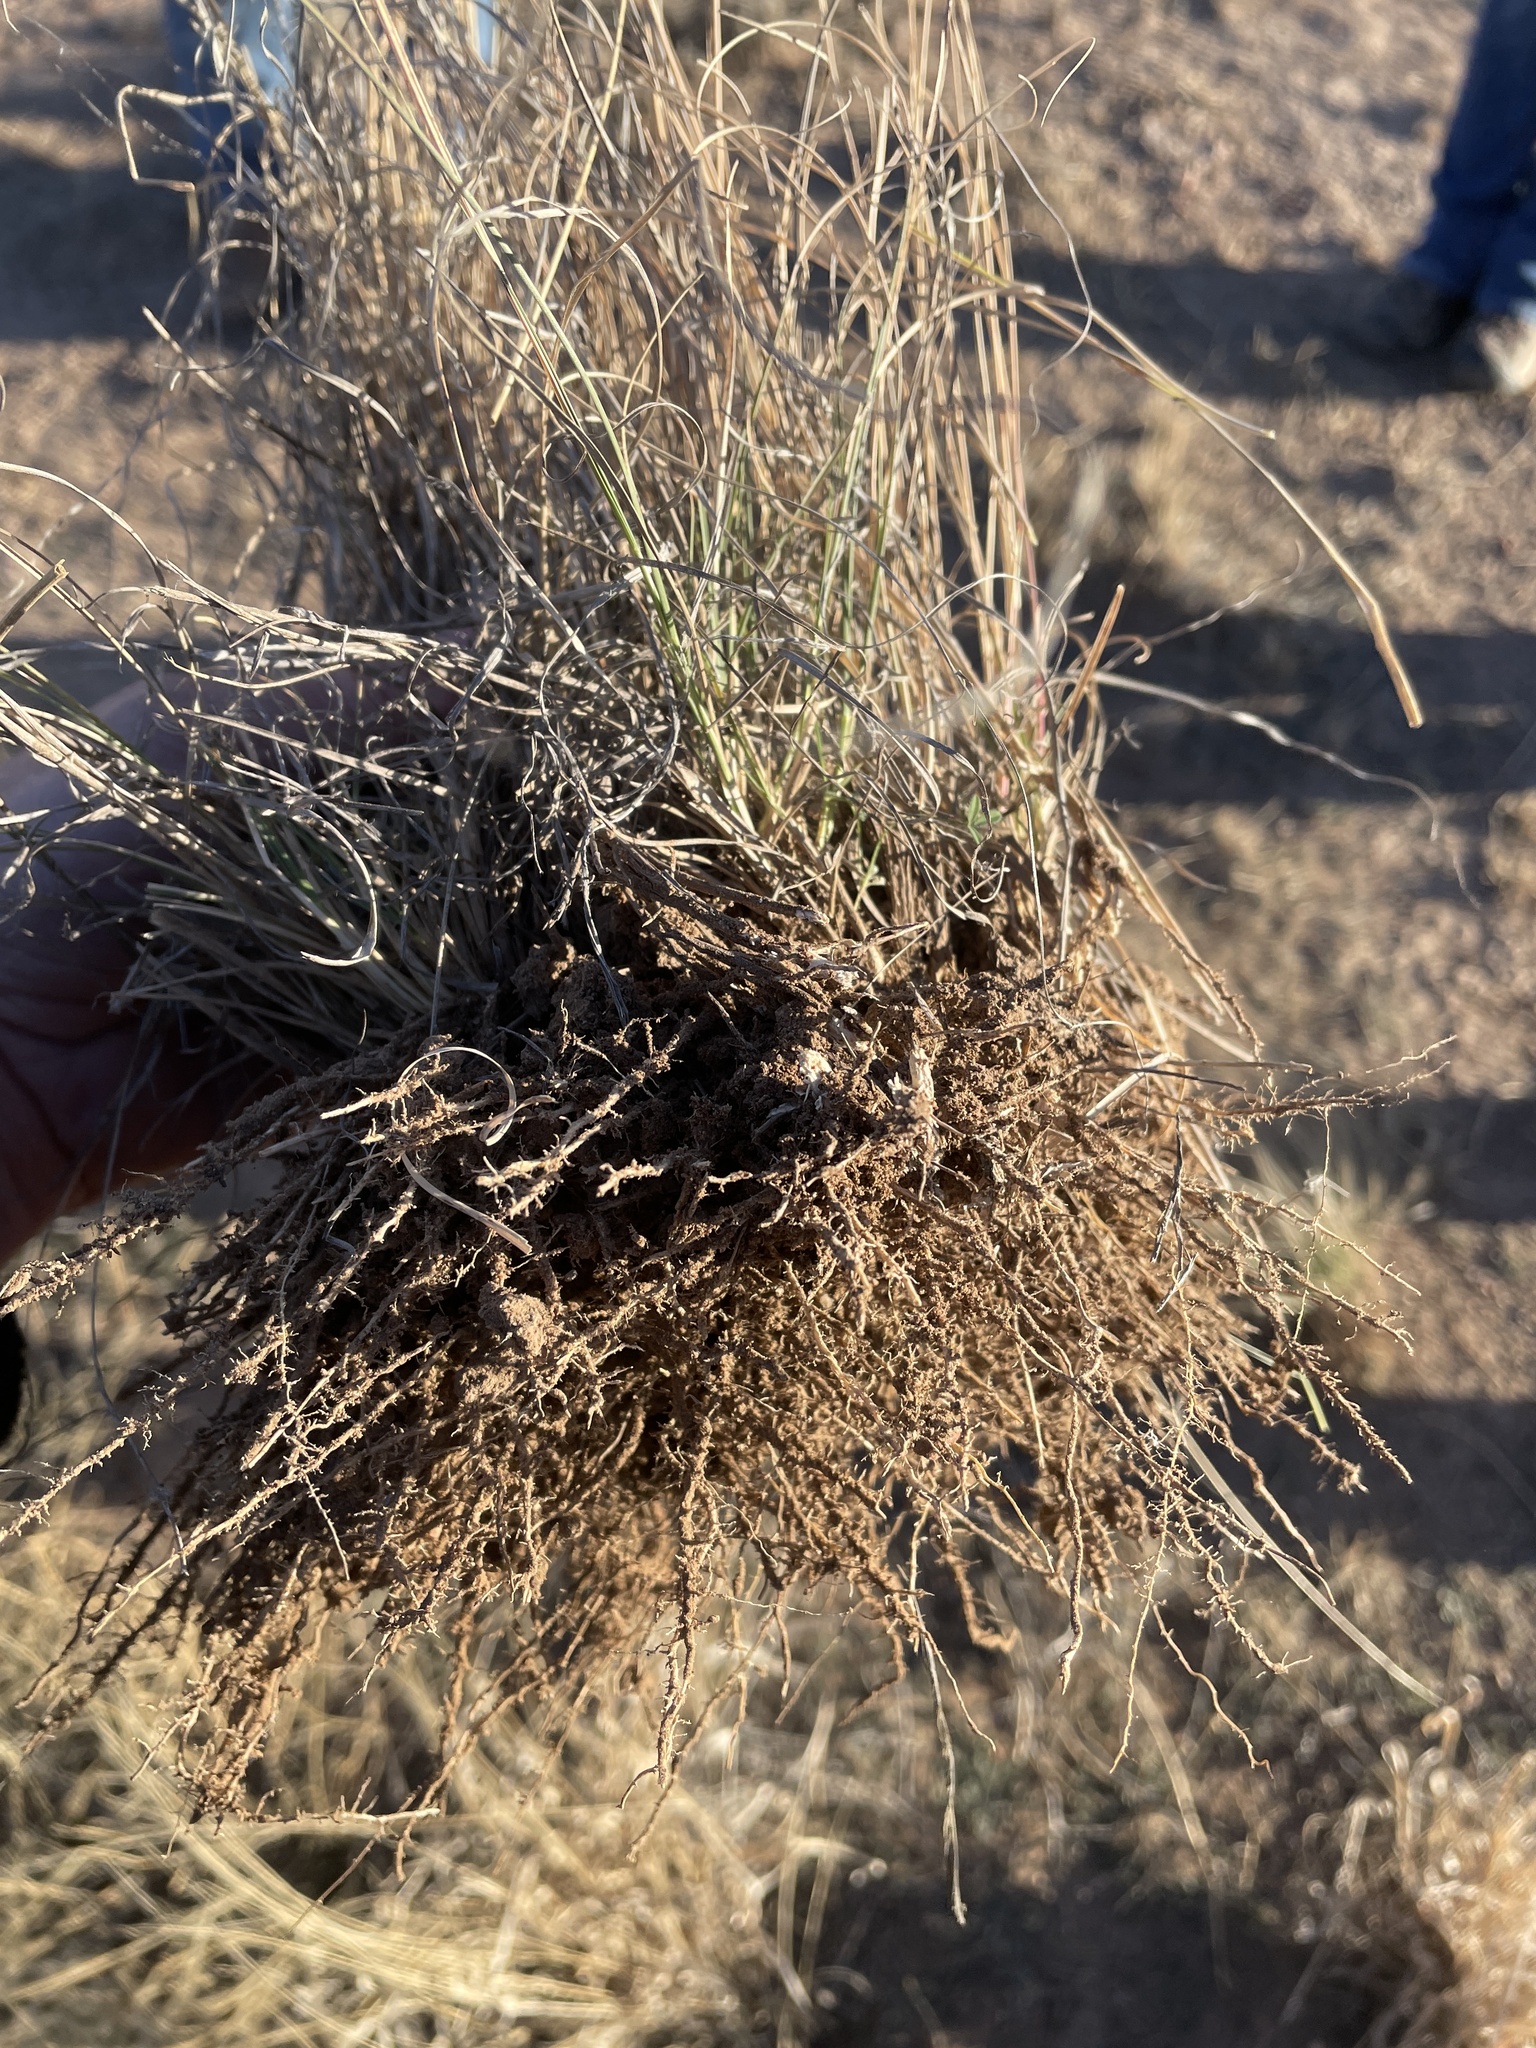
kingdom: Plantae
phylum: Tracheophyta
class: Liliopsida
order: Poales
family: Poaceae
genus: Bouteloua
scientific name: Bouteloua gracilis
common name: Blue grama
